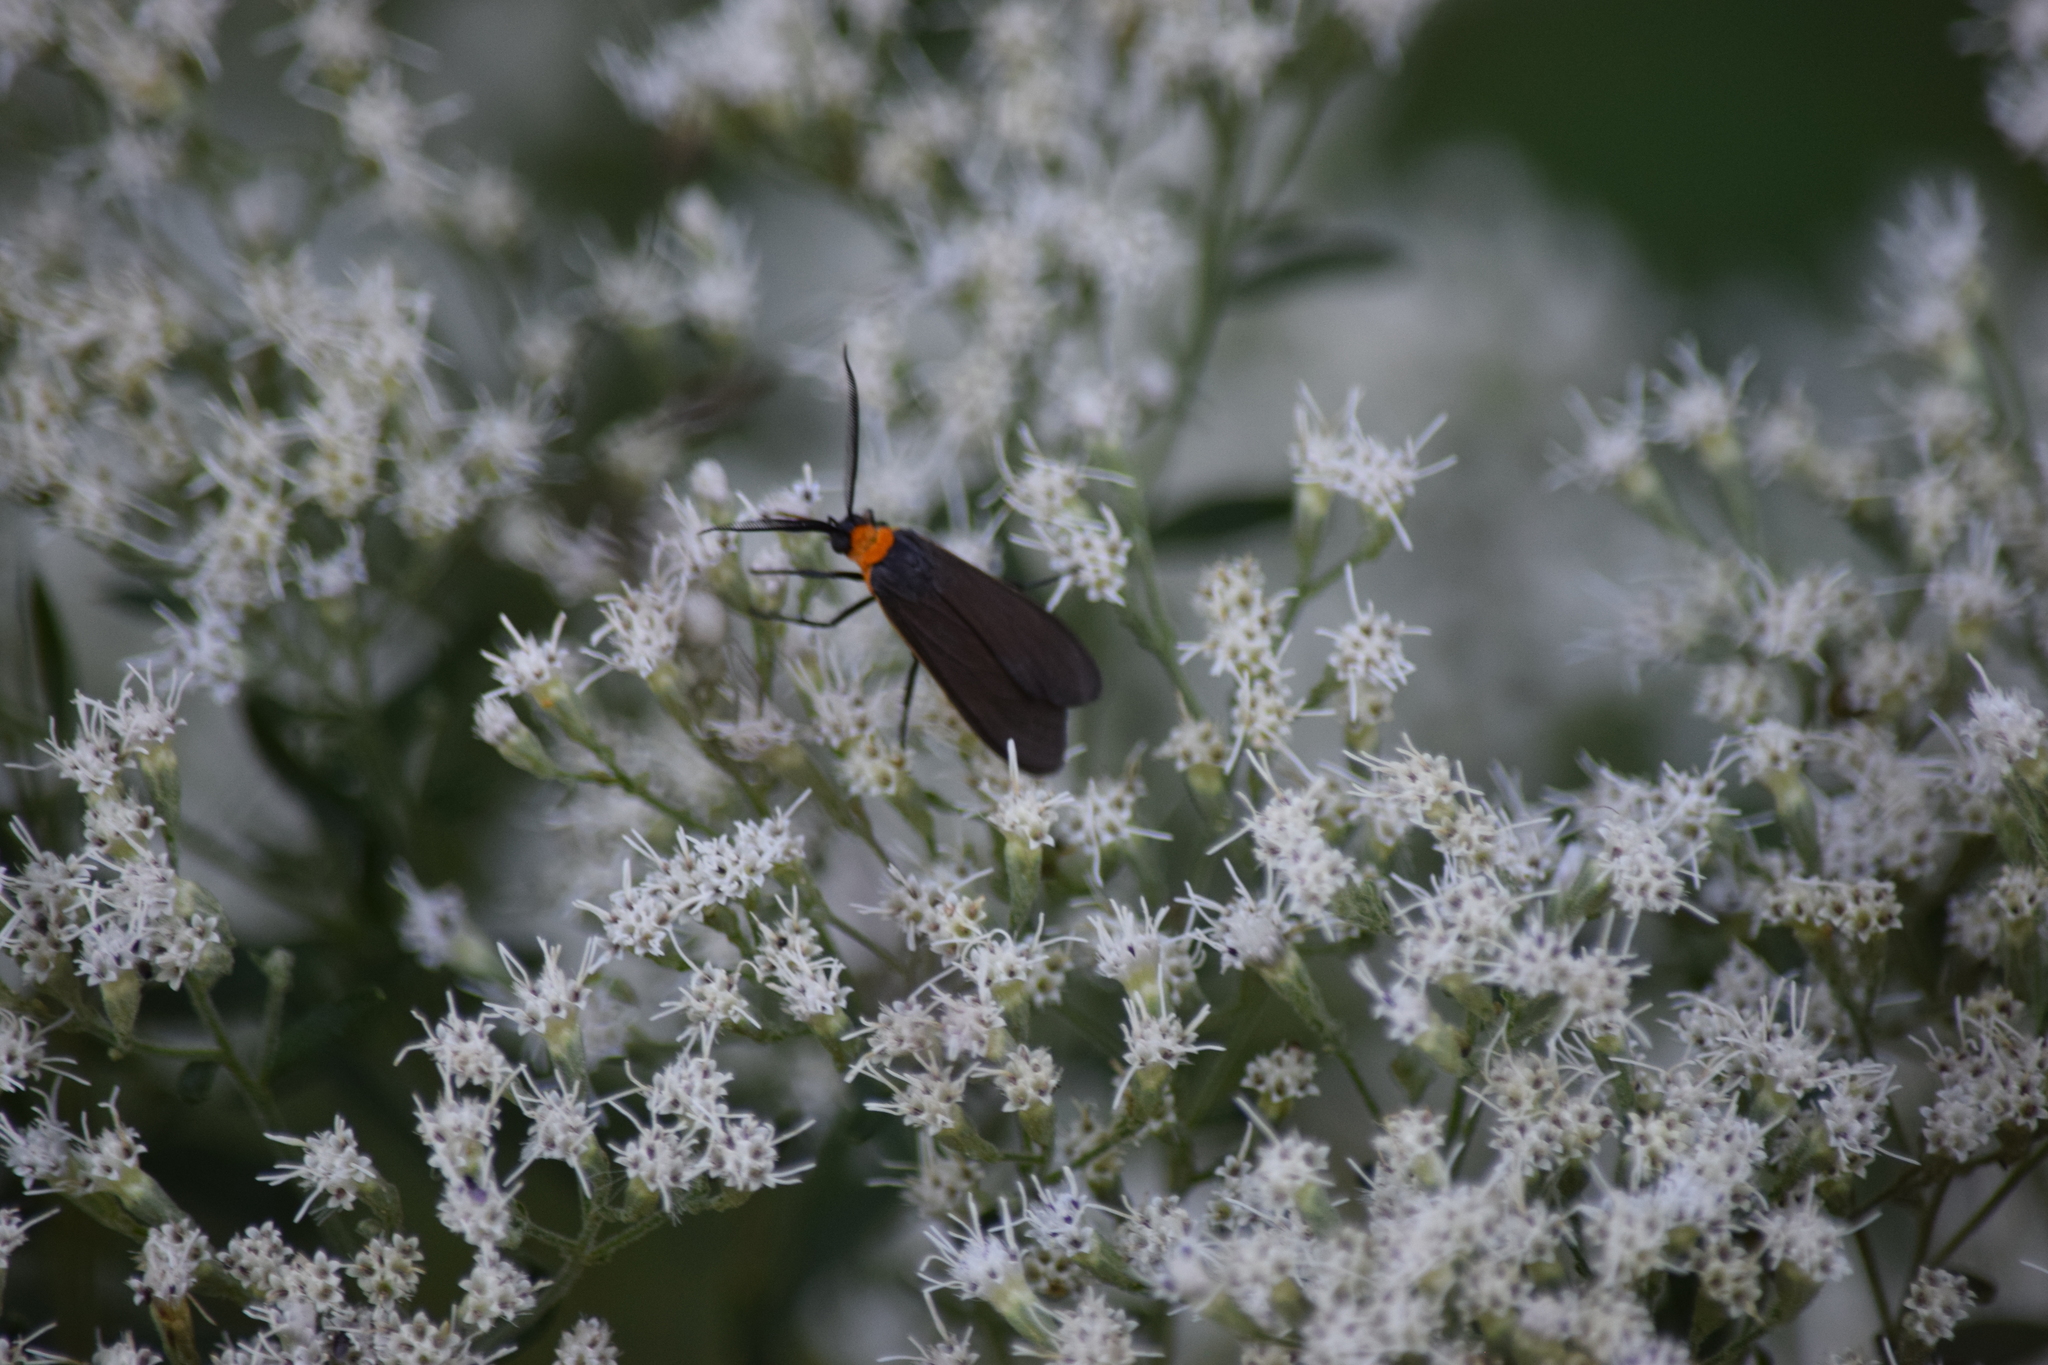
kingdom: Animalia
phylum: Arthropoda
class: Insecta
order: Lepidoptera
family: Erebidae
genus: Cisseps
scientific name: Cisseps fulvicollis
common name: Yellow-collared scape moth
